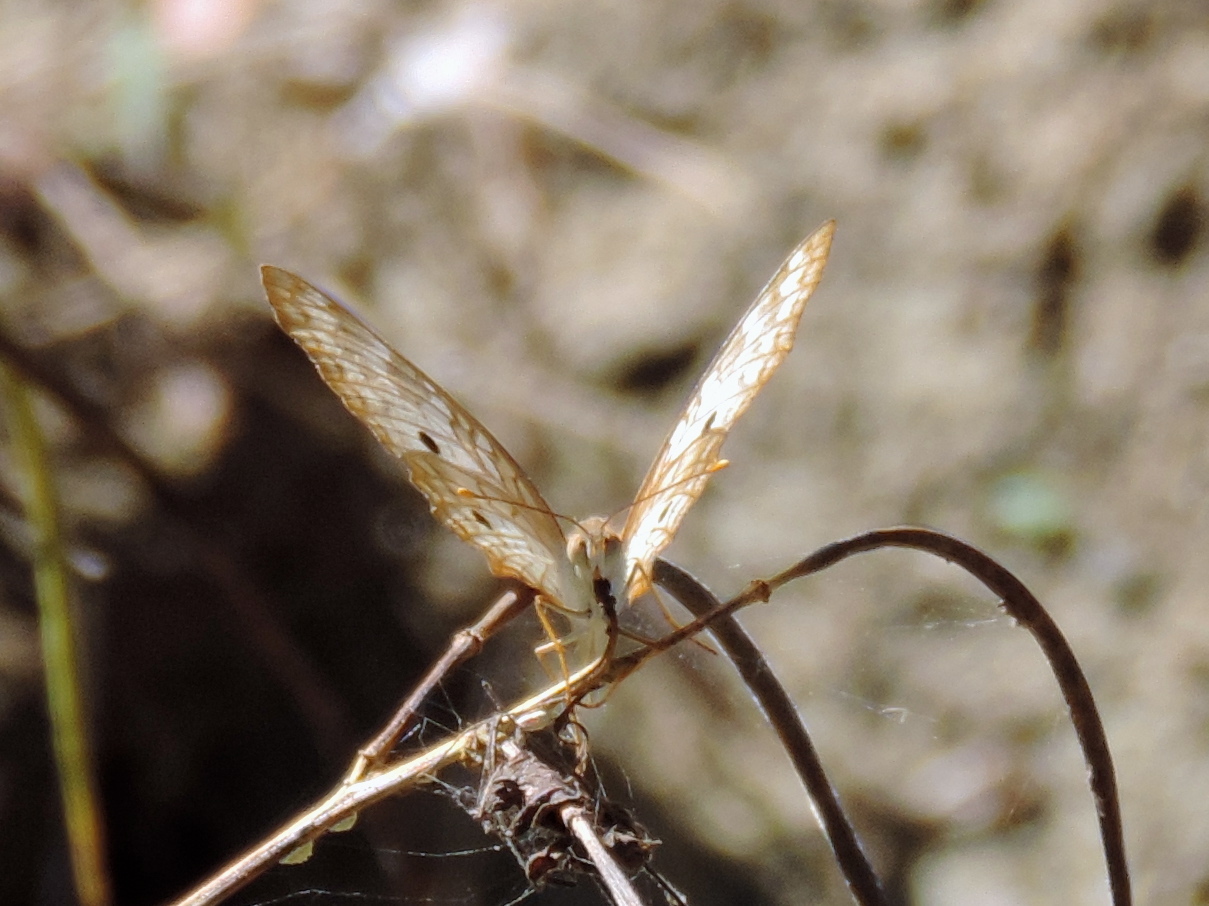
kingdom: Animalia
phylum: Arthropoda
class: Insecta
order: Lepidoptera
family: Nymphalidae
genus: Anartia
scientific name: Anartia jatrophae
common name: White peacock
